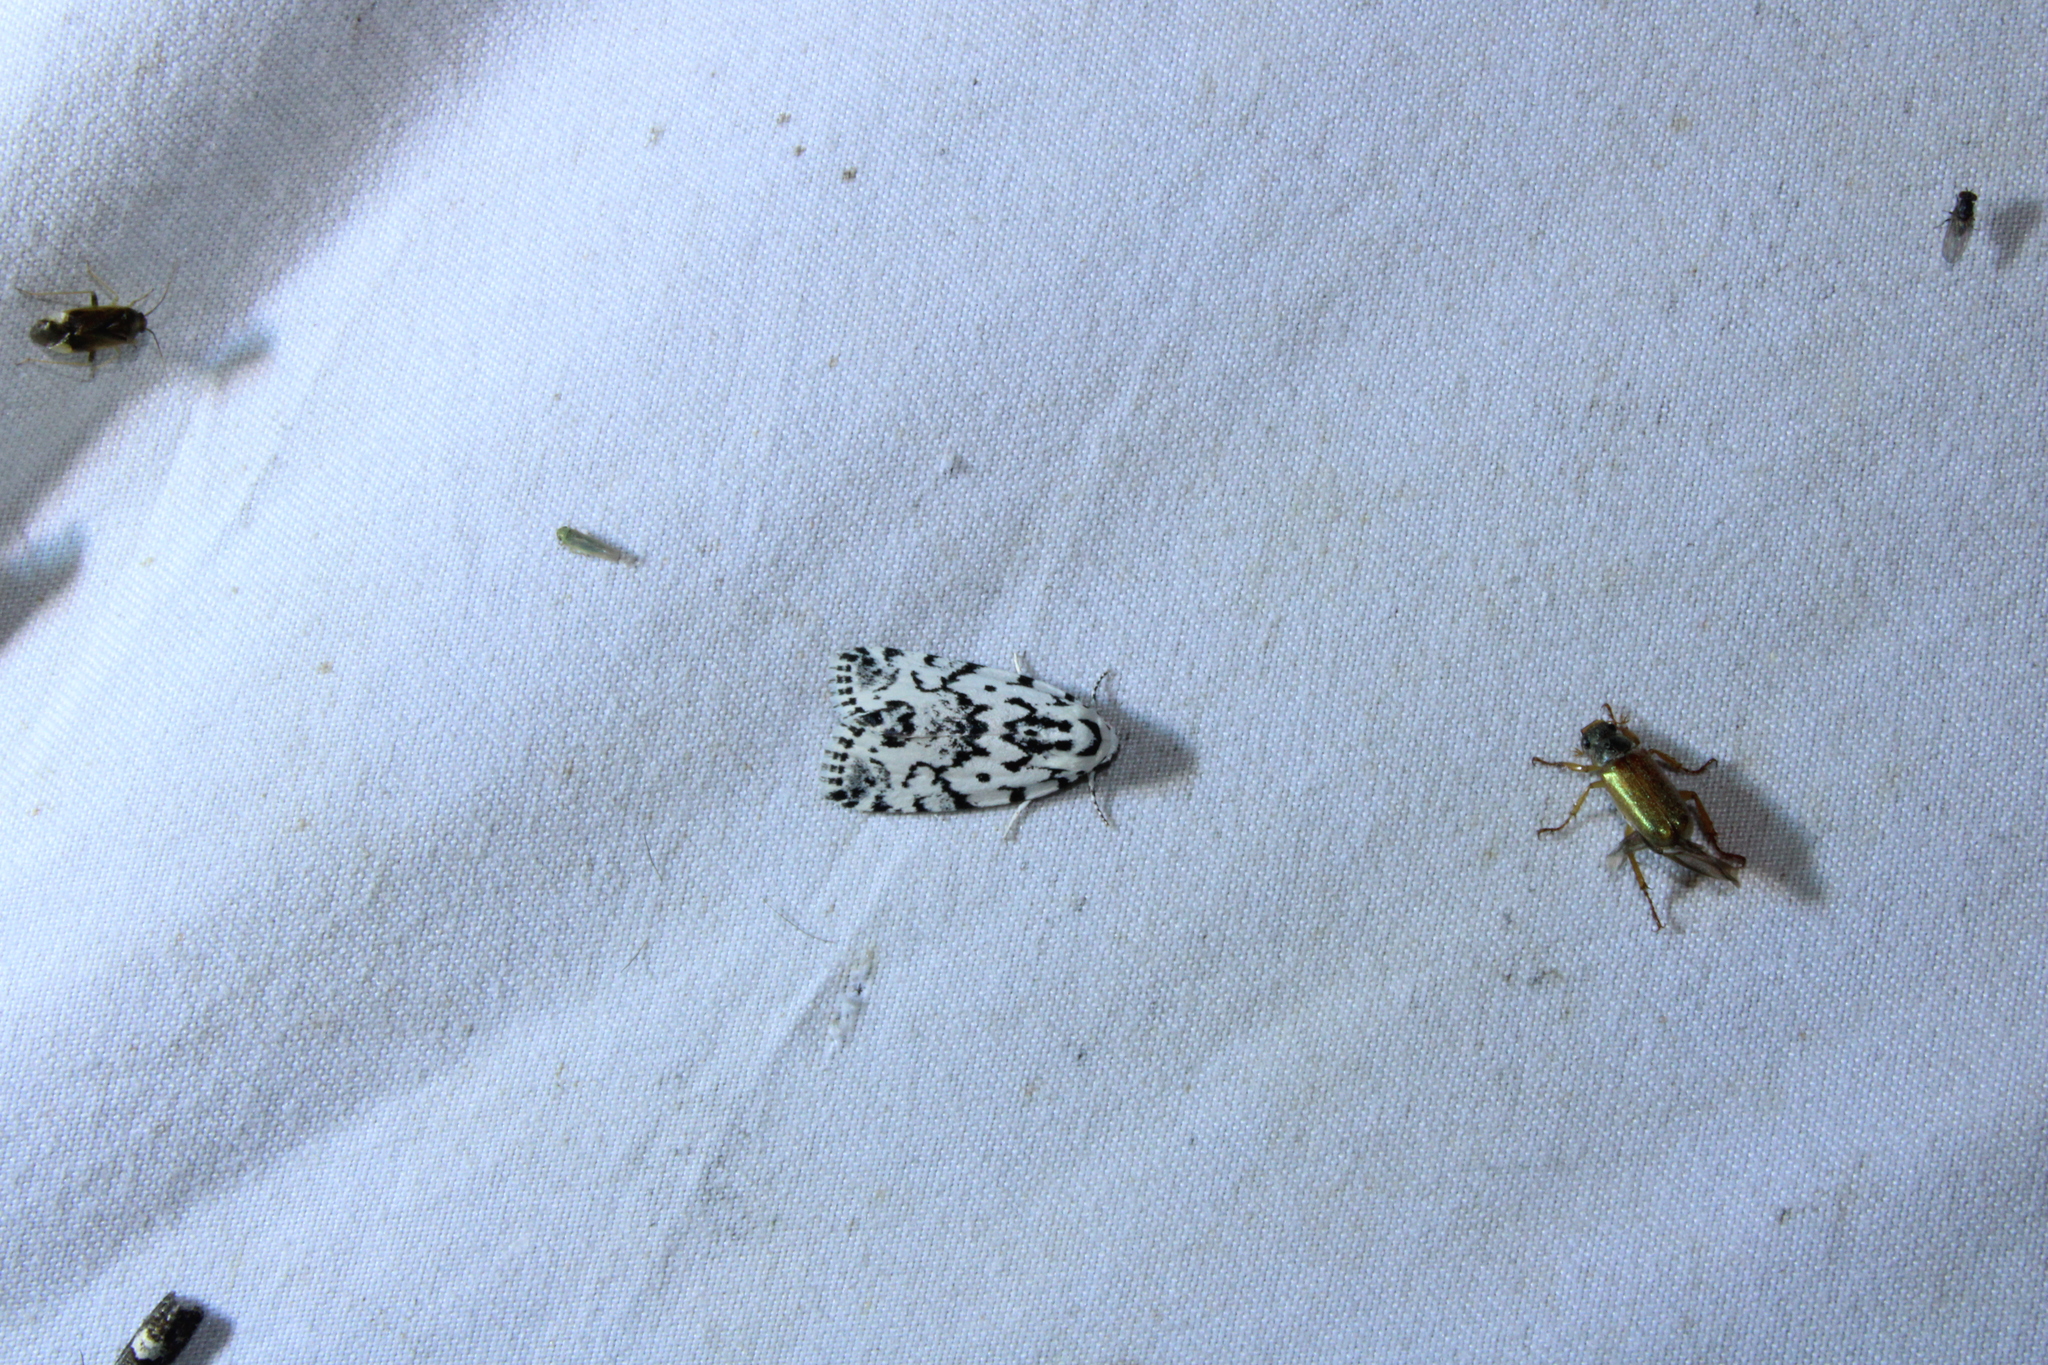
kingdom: Animalia
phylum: Arthropoda
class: Insecta
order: Lepidoptera
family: Noctuidae
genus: Polygrammate
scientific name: Polygrammate hebraeicum
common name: Hebrew moth
